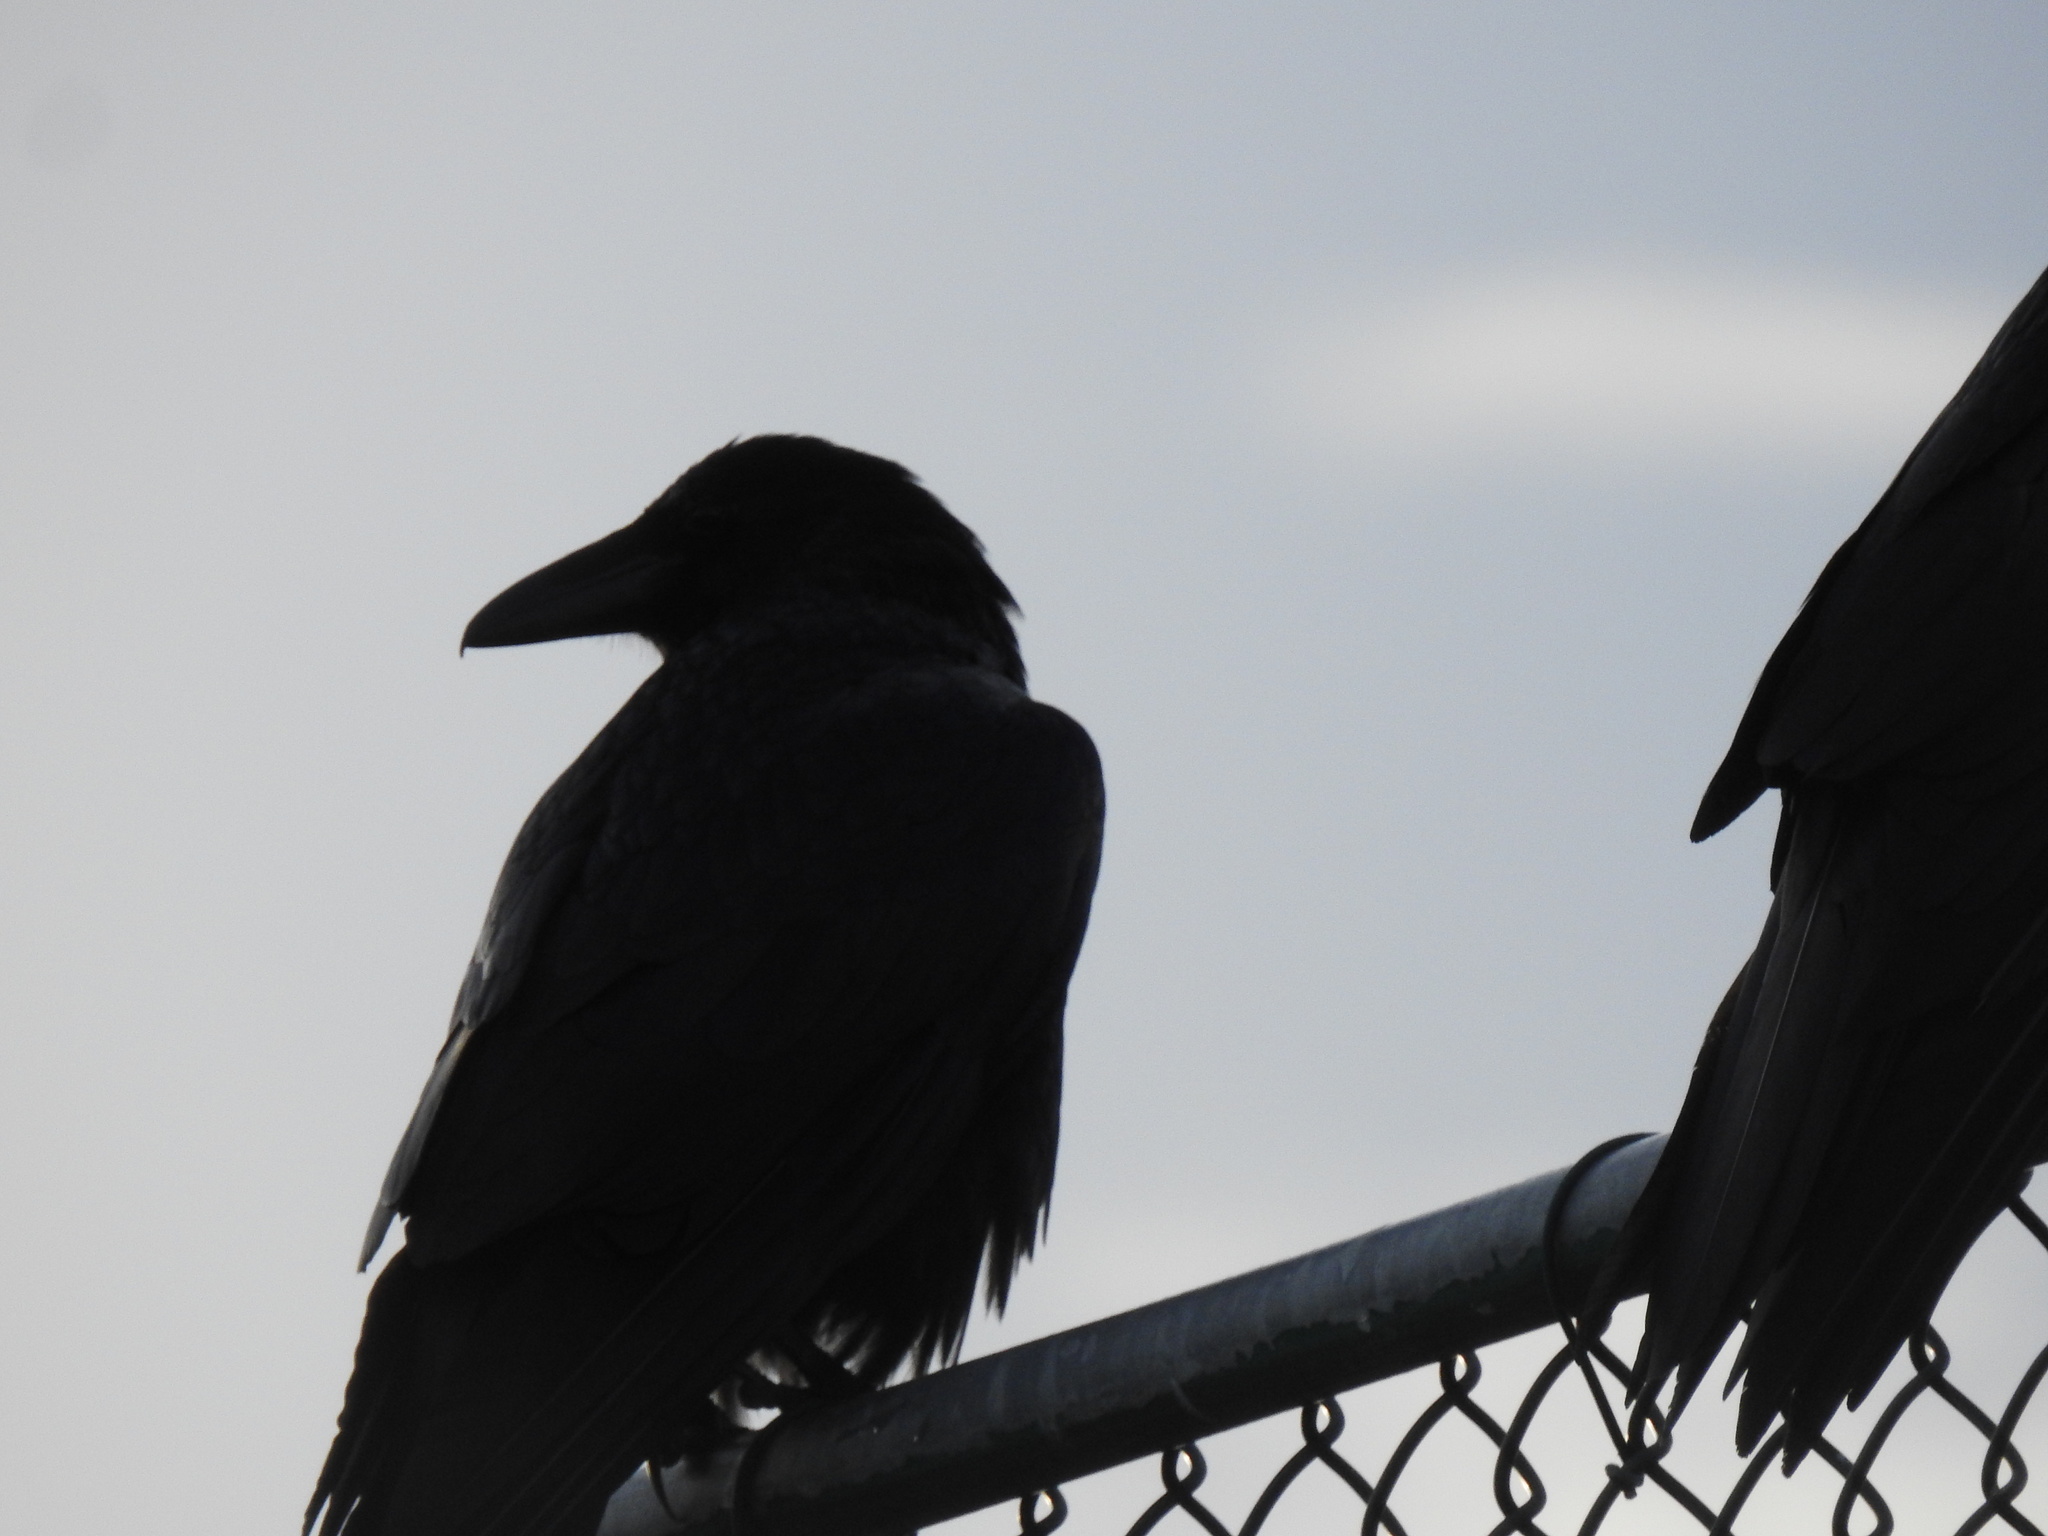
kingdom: Animalia
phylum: Chordata
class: Aves
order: Passeriformes
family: Corvidae
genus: Corvus
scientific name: Corvus corax
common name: Common raven
